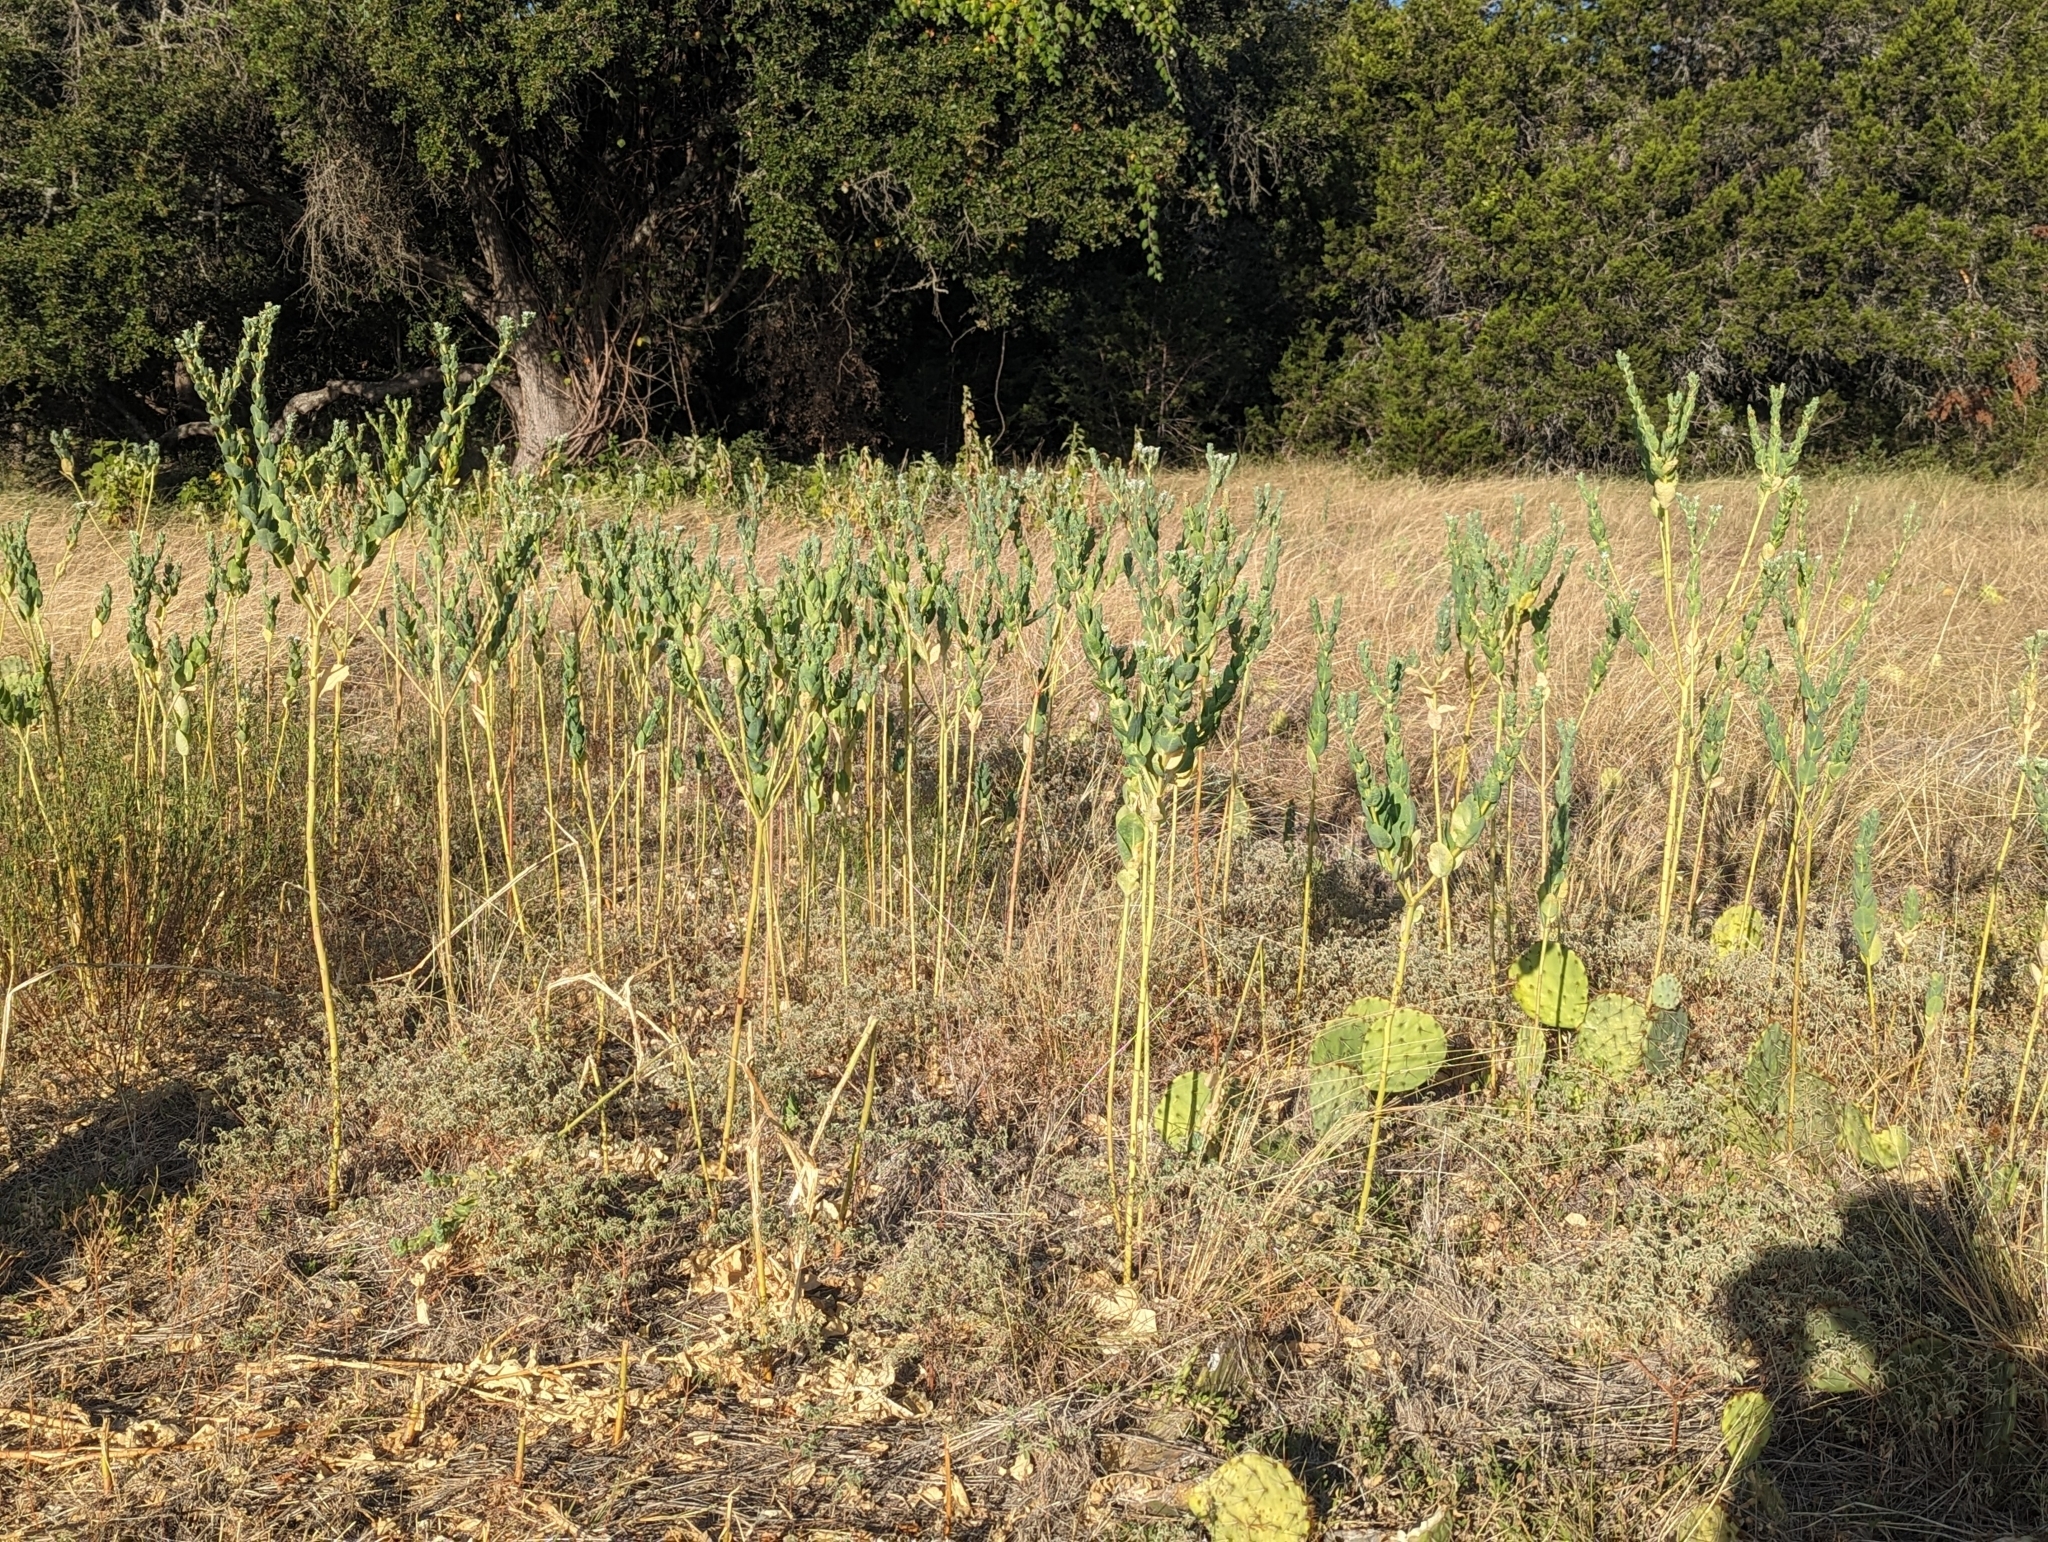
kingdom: Plantae
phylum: Tracheophyta
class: Magnoliopsida
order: Malpighiales
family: Euphorbiaceae
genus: Euphorbia
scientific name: Euphorbia marginata
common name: Ghostweed
